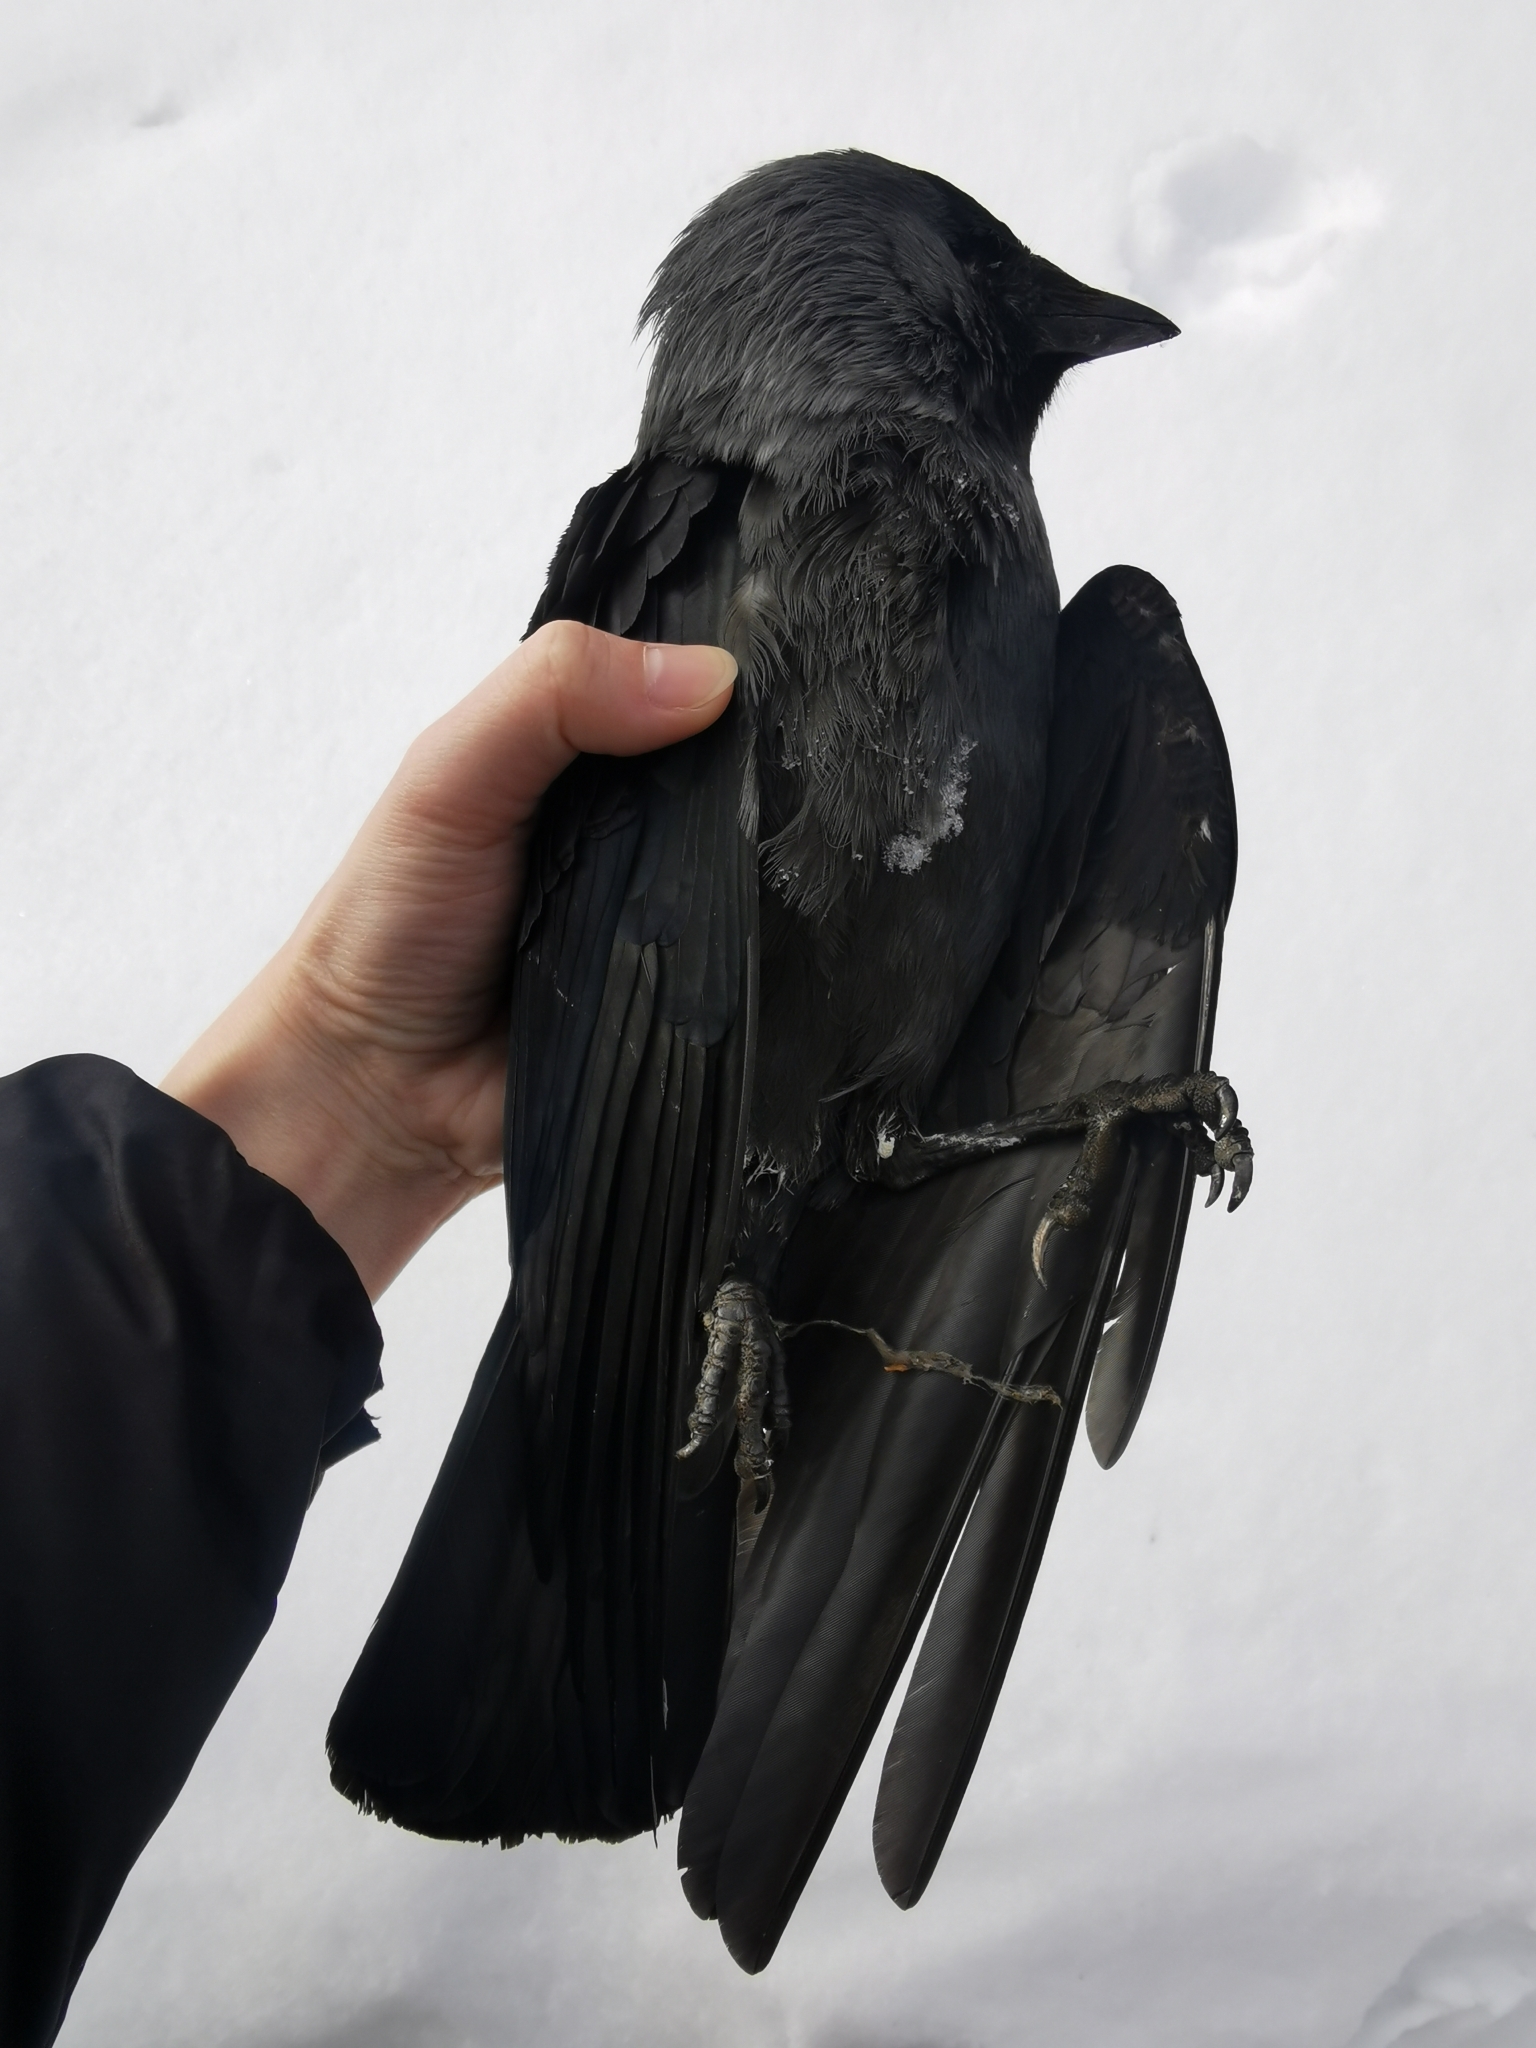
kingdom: Animalia
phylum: Chordata
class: Aves
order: Passeriformes
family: Corvidae
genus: Coloeus
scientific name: Coloeus monedula
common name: Western jackdaw
